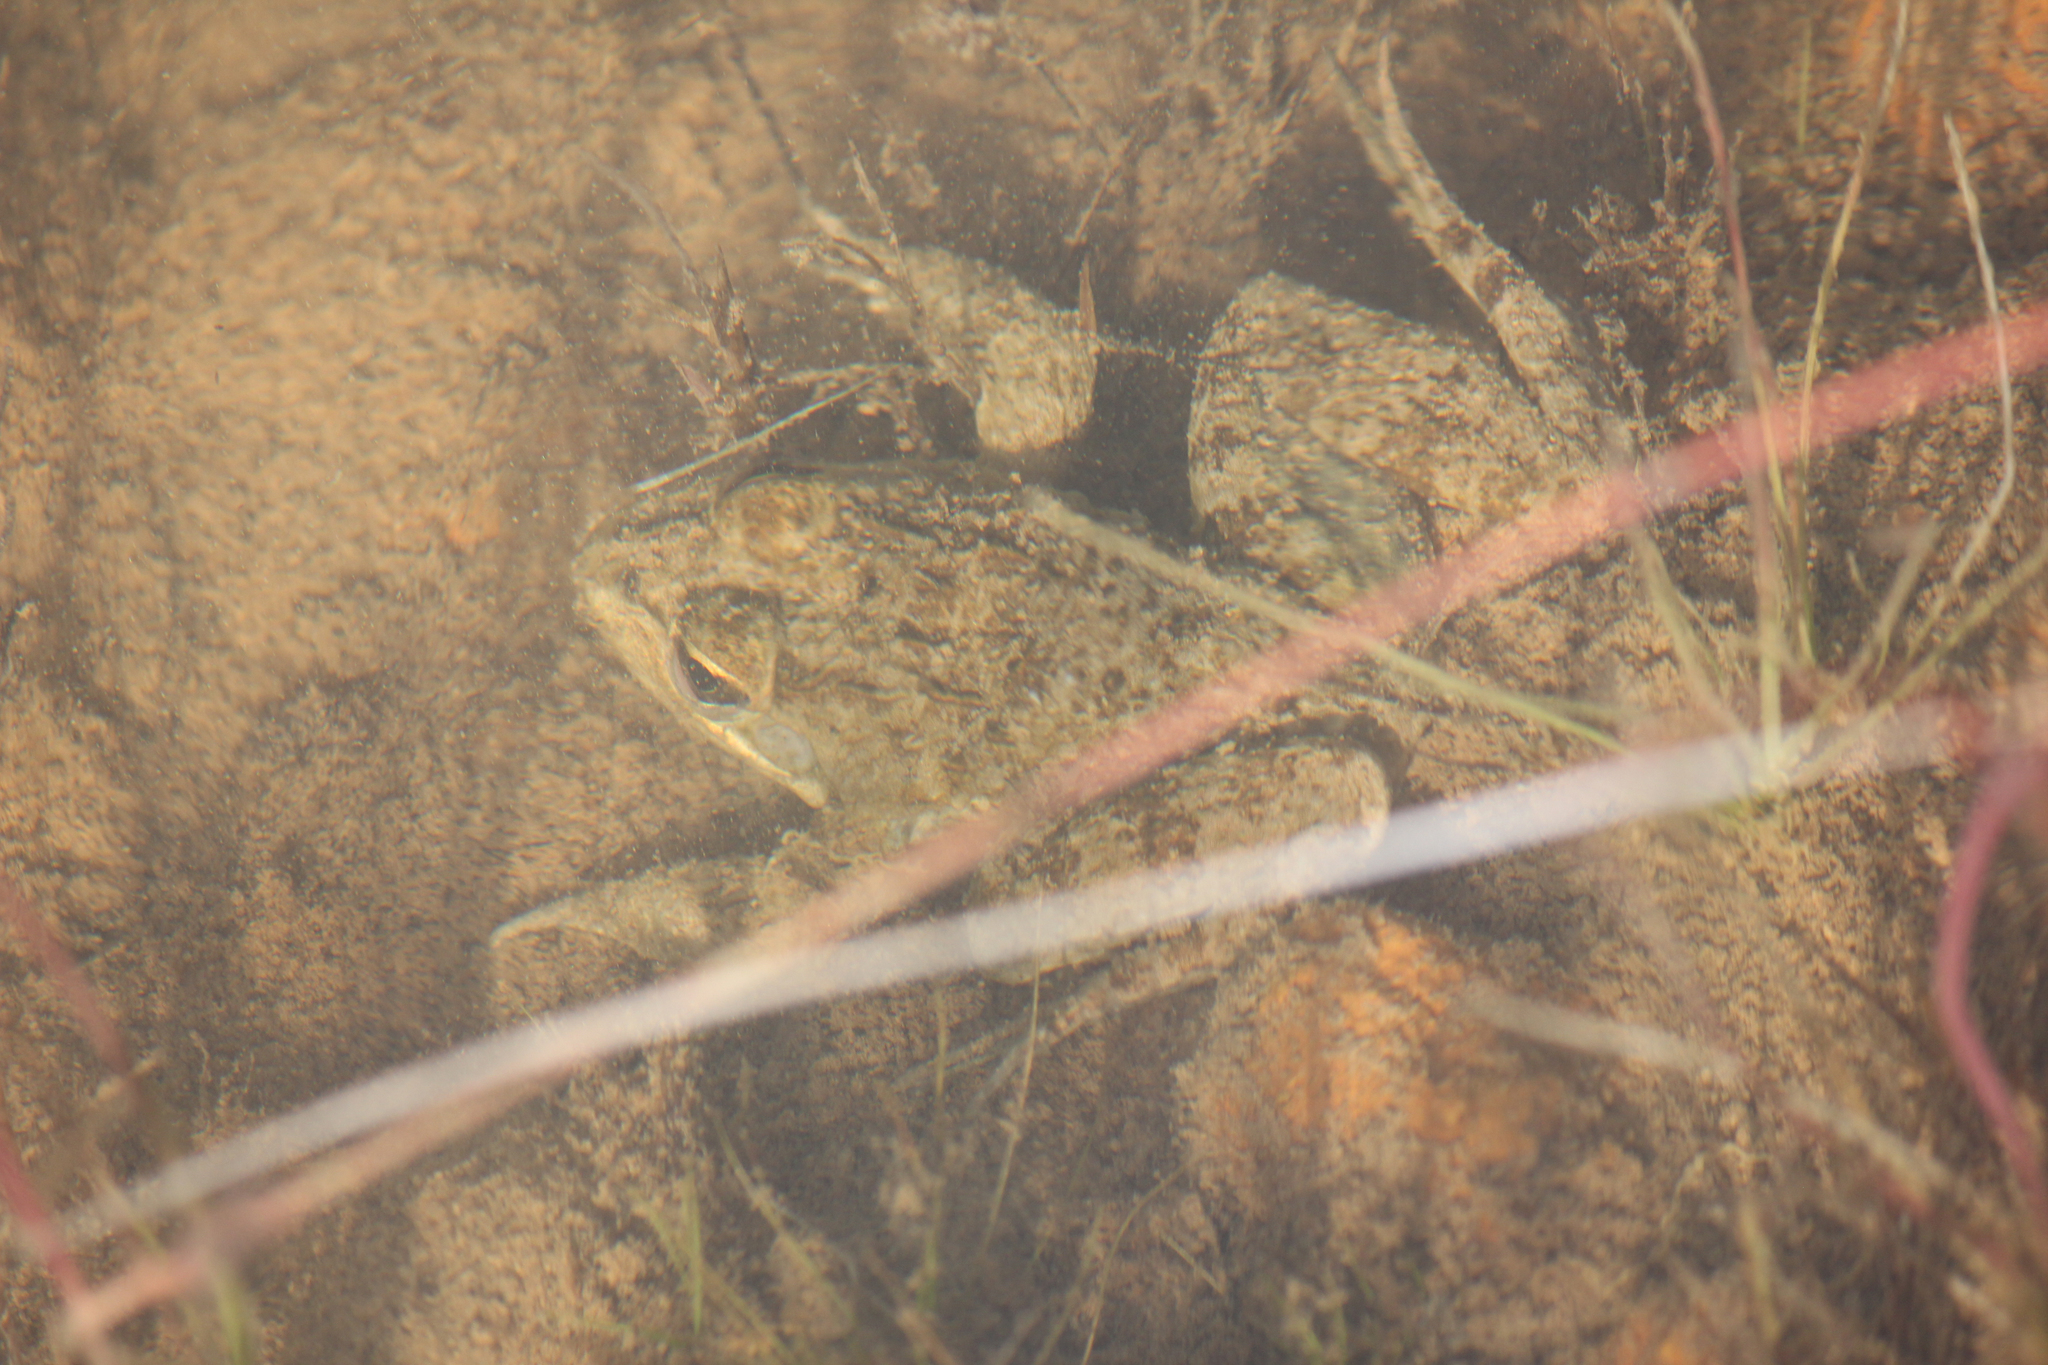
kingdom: Animalia
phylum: Chordata
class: Amphibia
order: Anura
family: Pyxicephalidae
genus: Amietia
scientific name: Amietia fuscigula
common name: Cape rana
